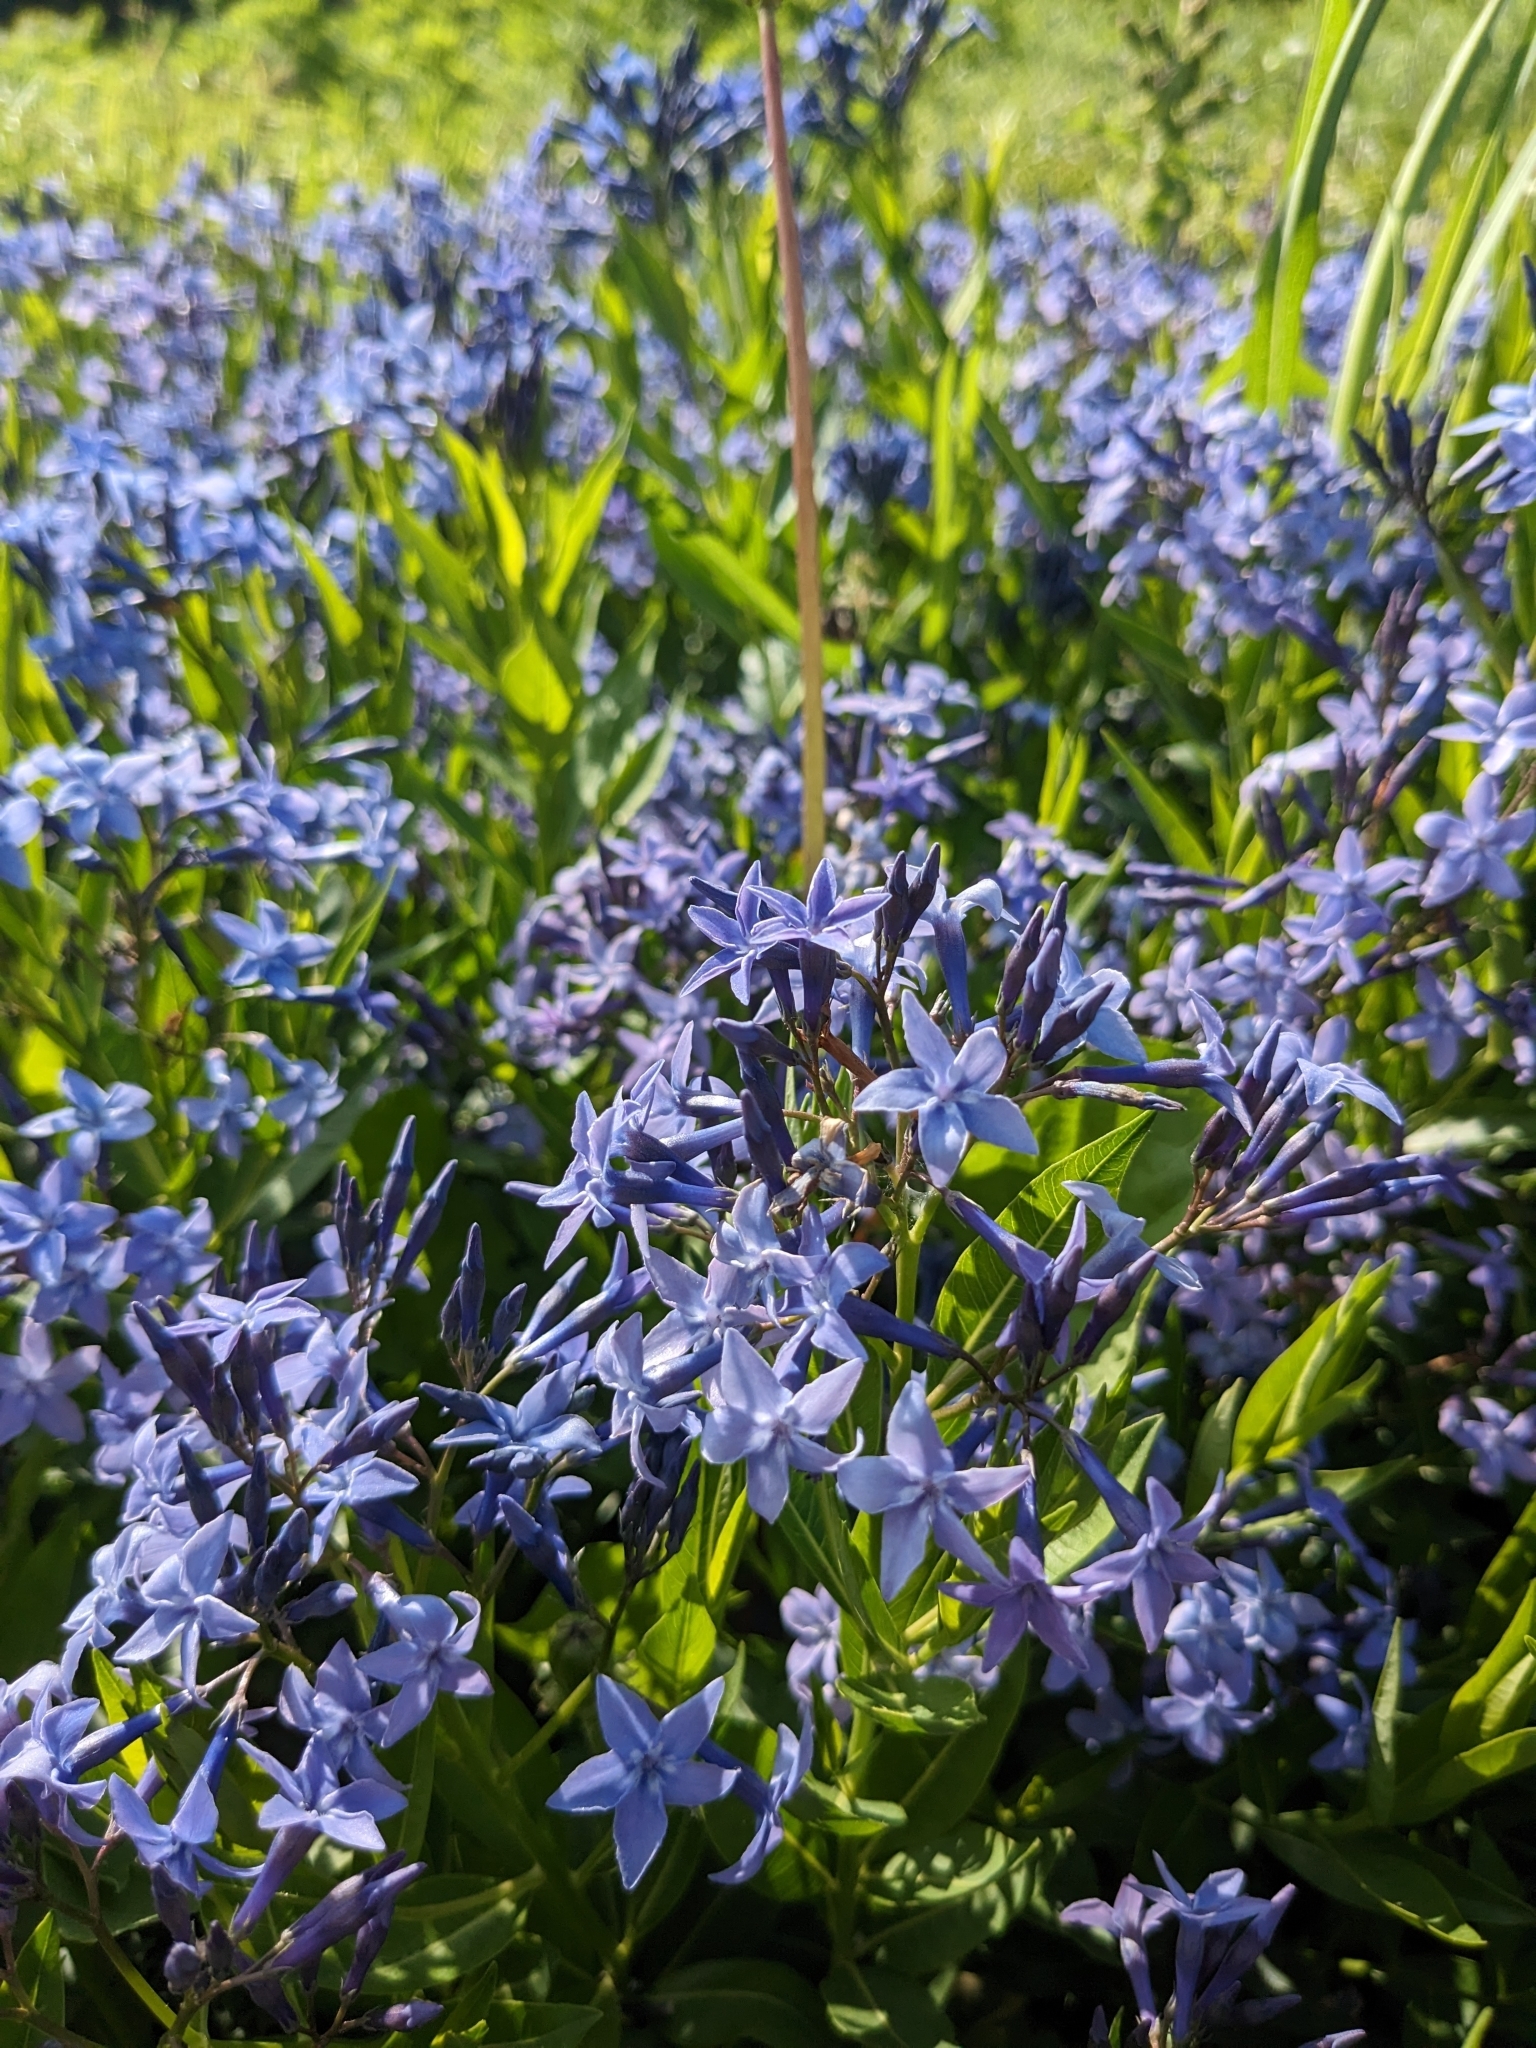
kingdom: Plantae
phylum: Tracheophyta
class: Magnoliopsida
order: Gentianales
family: Apocynaceae
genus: Amsonia
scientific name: Amsonia tabernaemontana
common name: Texas-star
